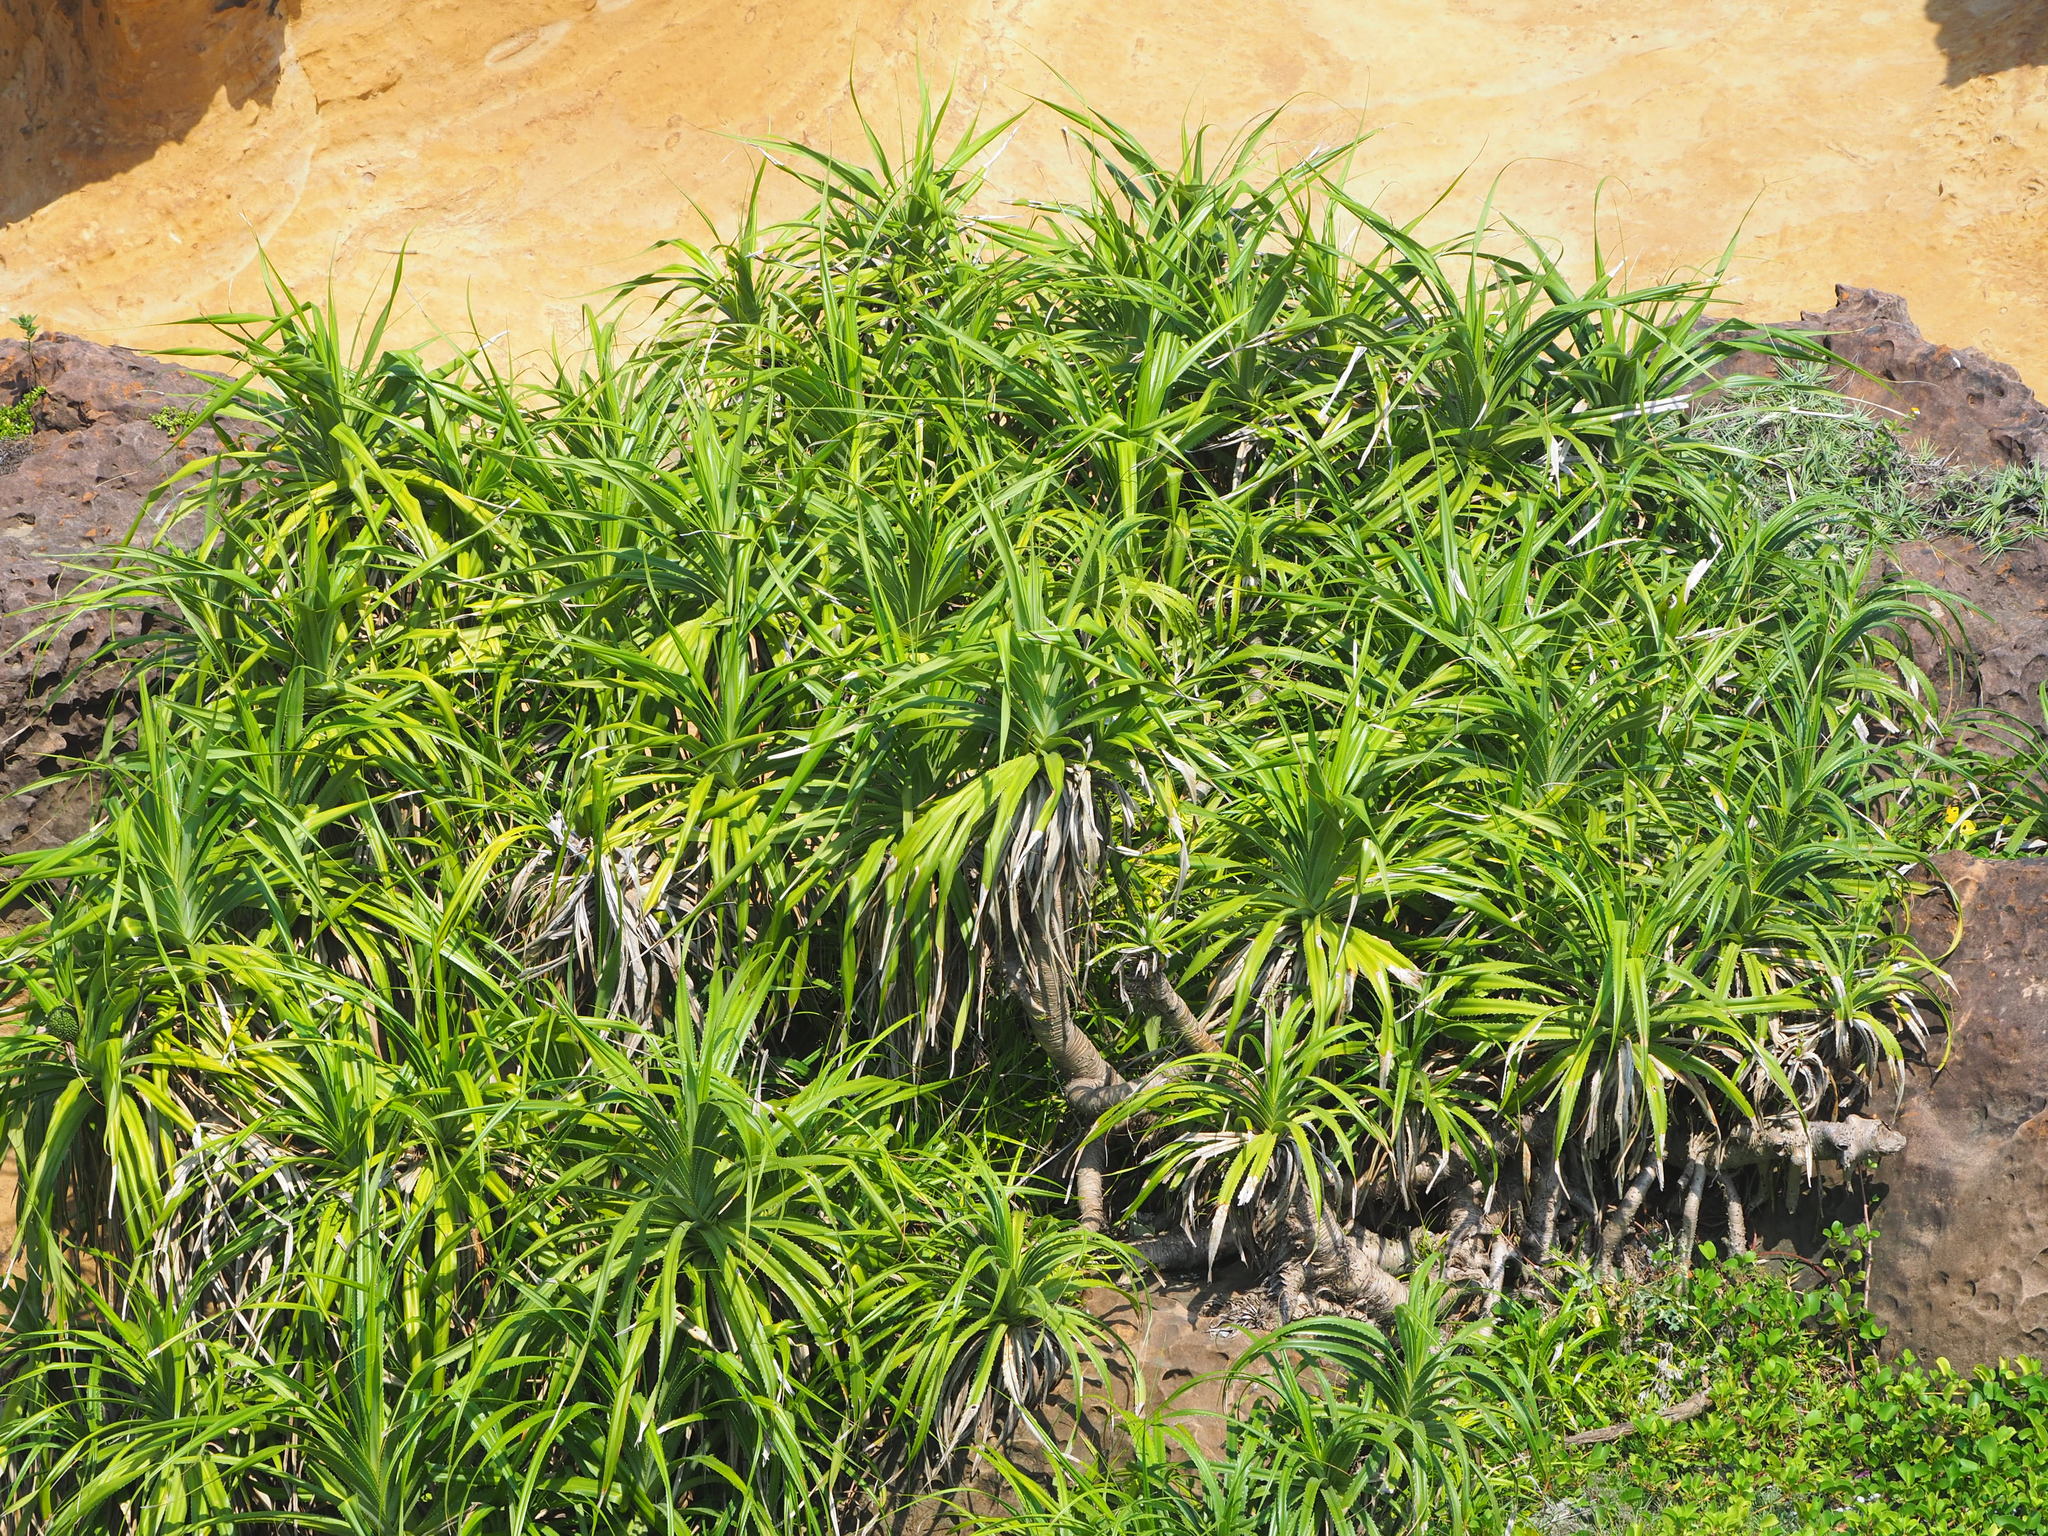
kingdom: Plantae
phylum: Tracheophyta
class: Liliopsida
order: Pandanales
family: Pandanaceae
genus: Pandanus
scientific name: Pandanus odorifer
